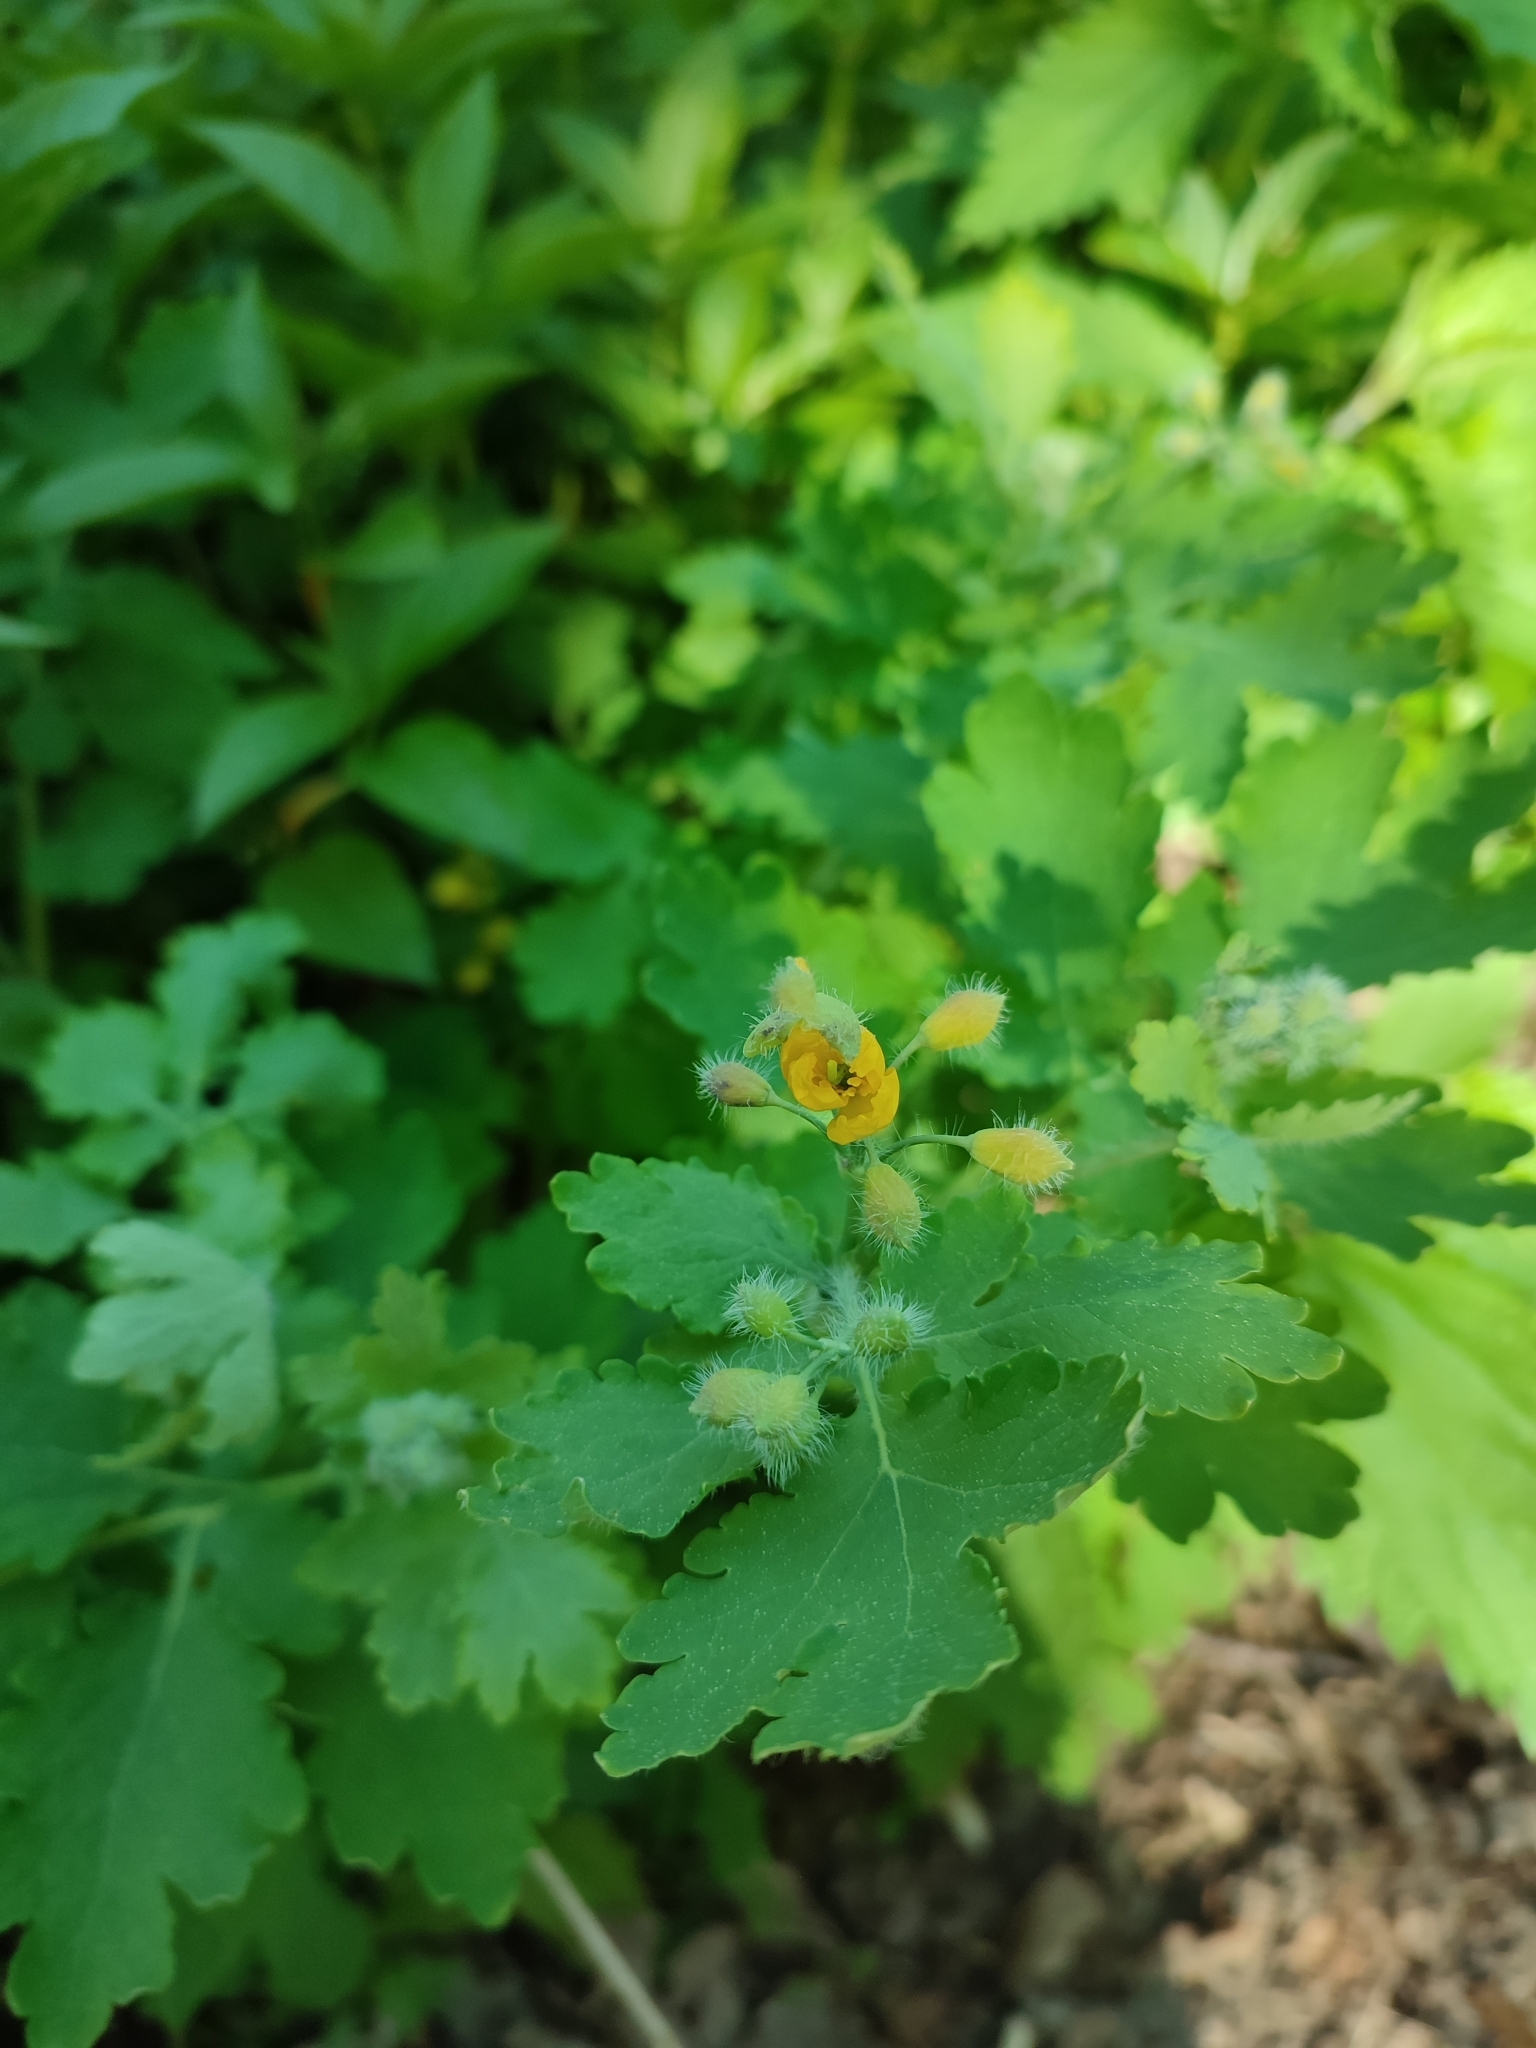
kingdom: Plantae
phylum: Tracheophyta
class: Magnoliopsida
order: Ranunculales
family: Papaveraceae
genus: Chelidonium
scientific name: Chelidonium majus
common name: Greater celandine
